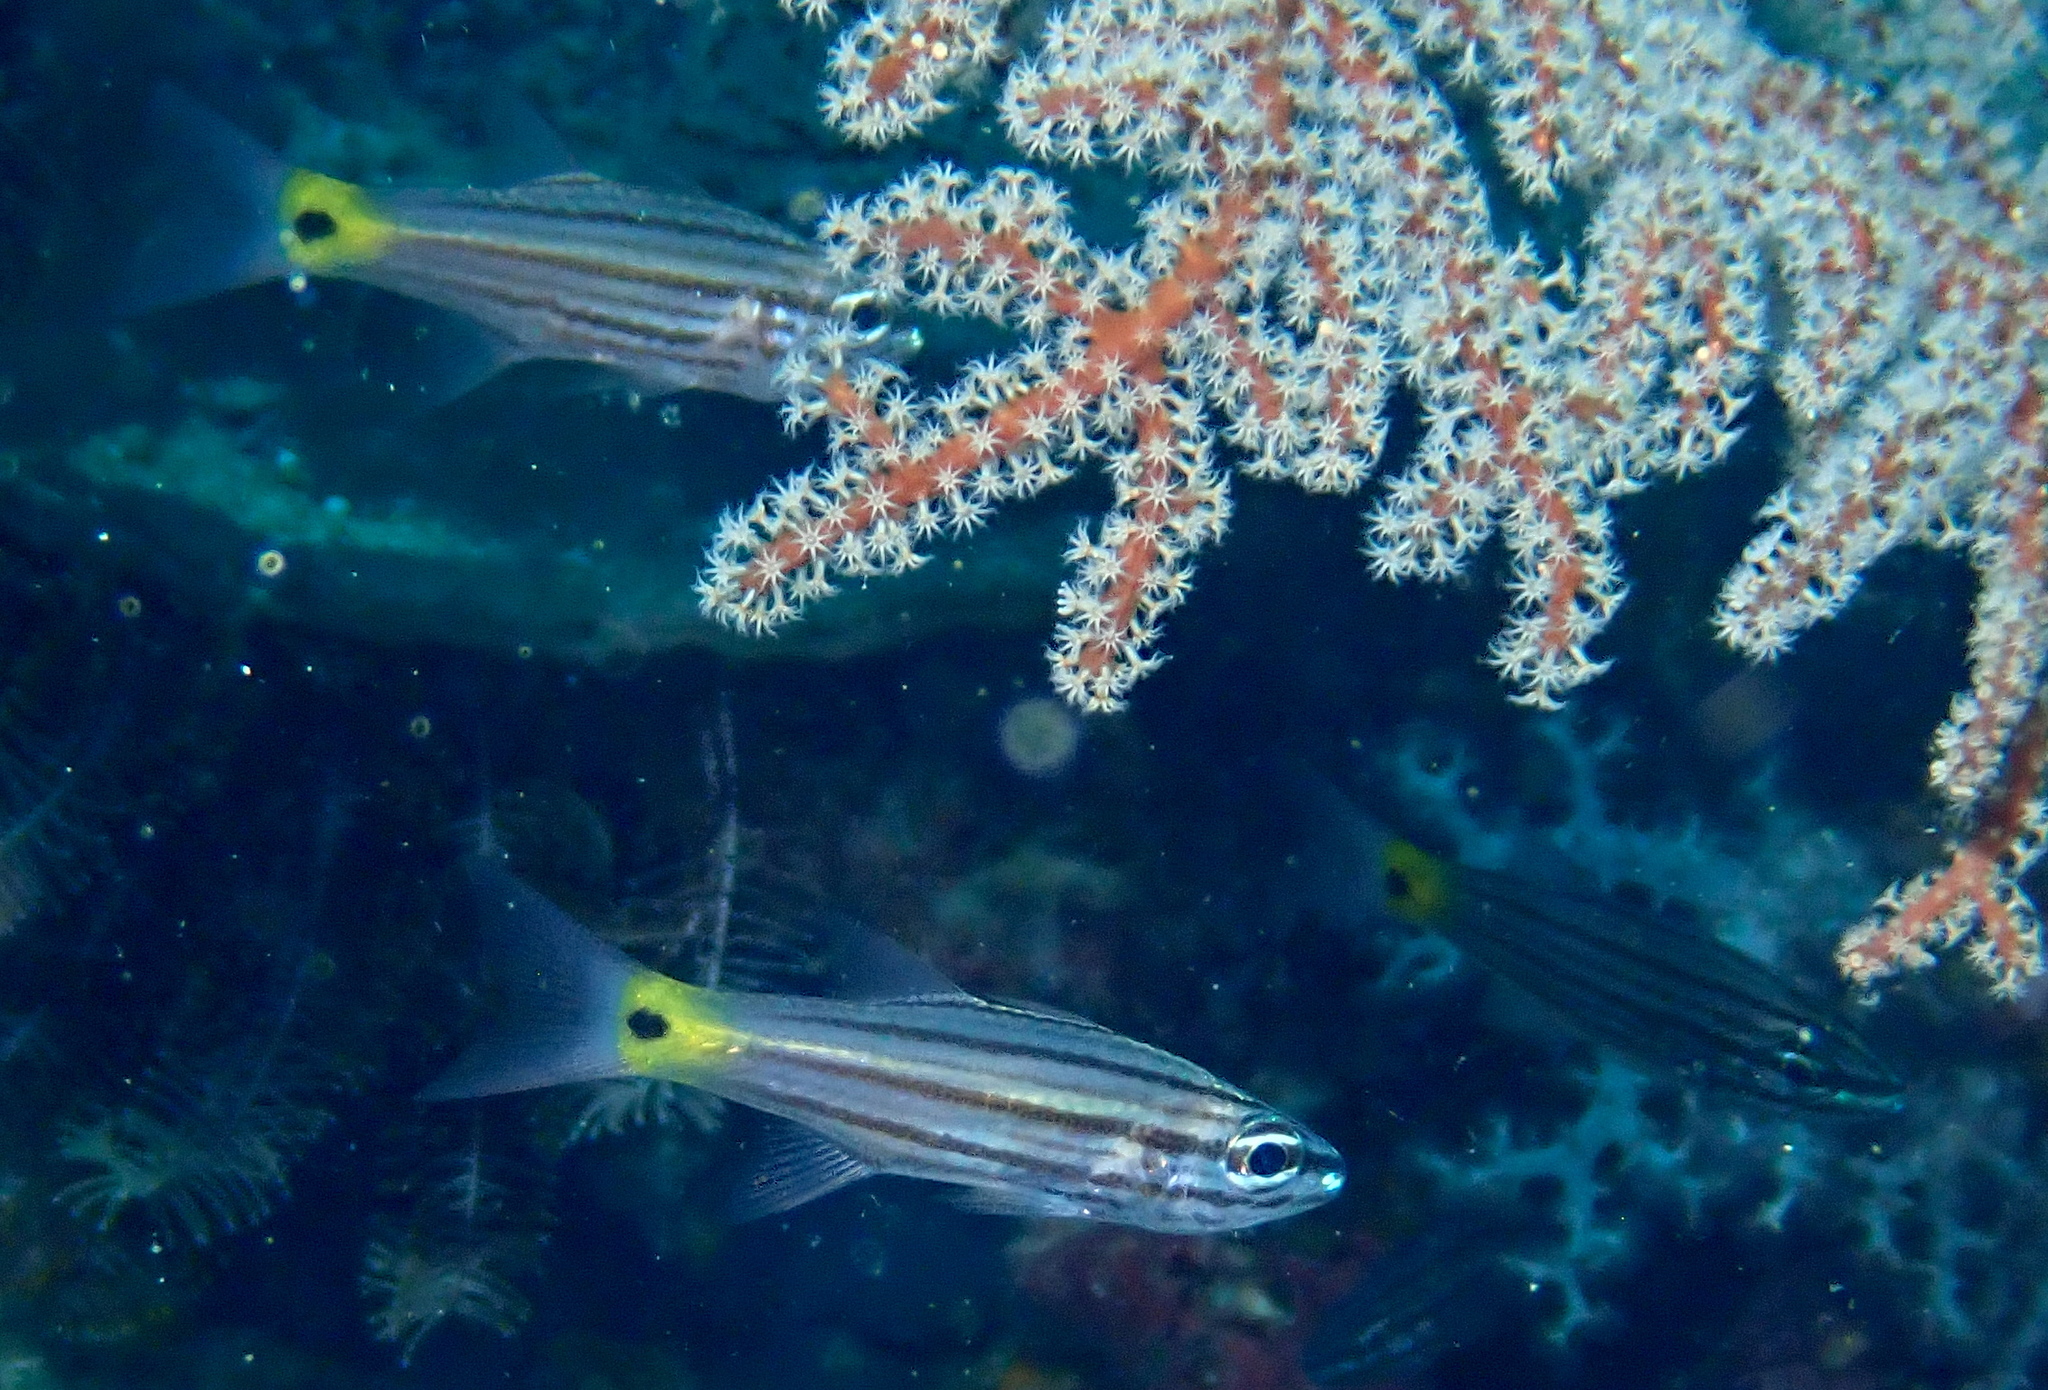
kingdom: Animalia
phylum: Chordata
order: Perciformes
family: Apogonidae
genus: Cheilodipterus
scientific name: Cheilodipterus artus
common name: Wolf cardinal
